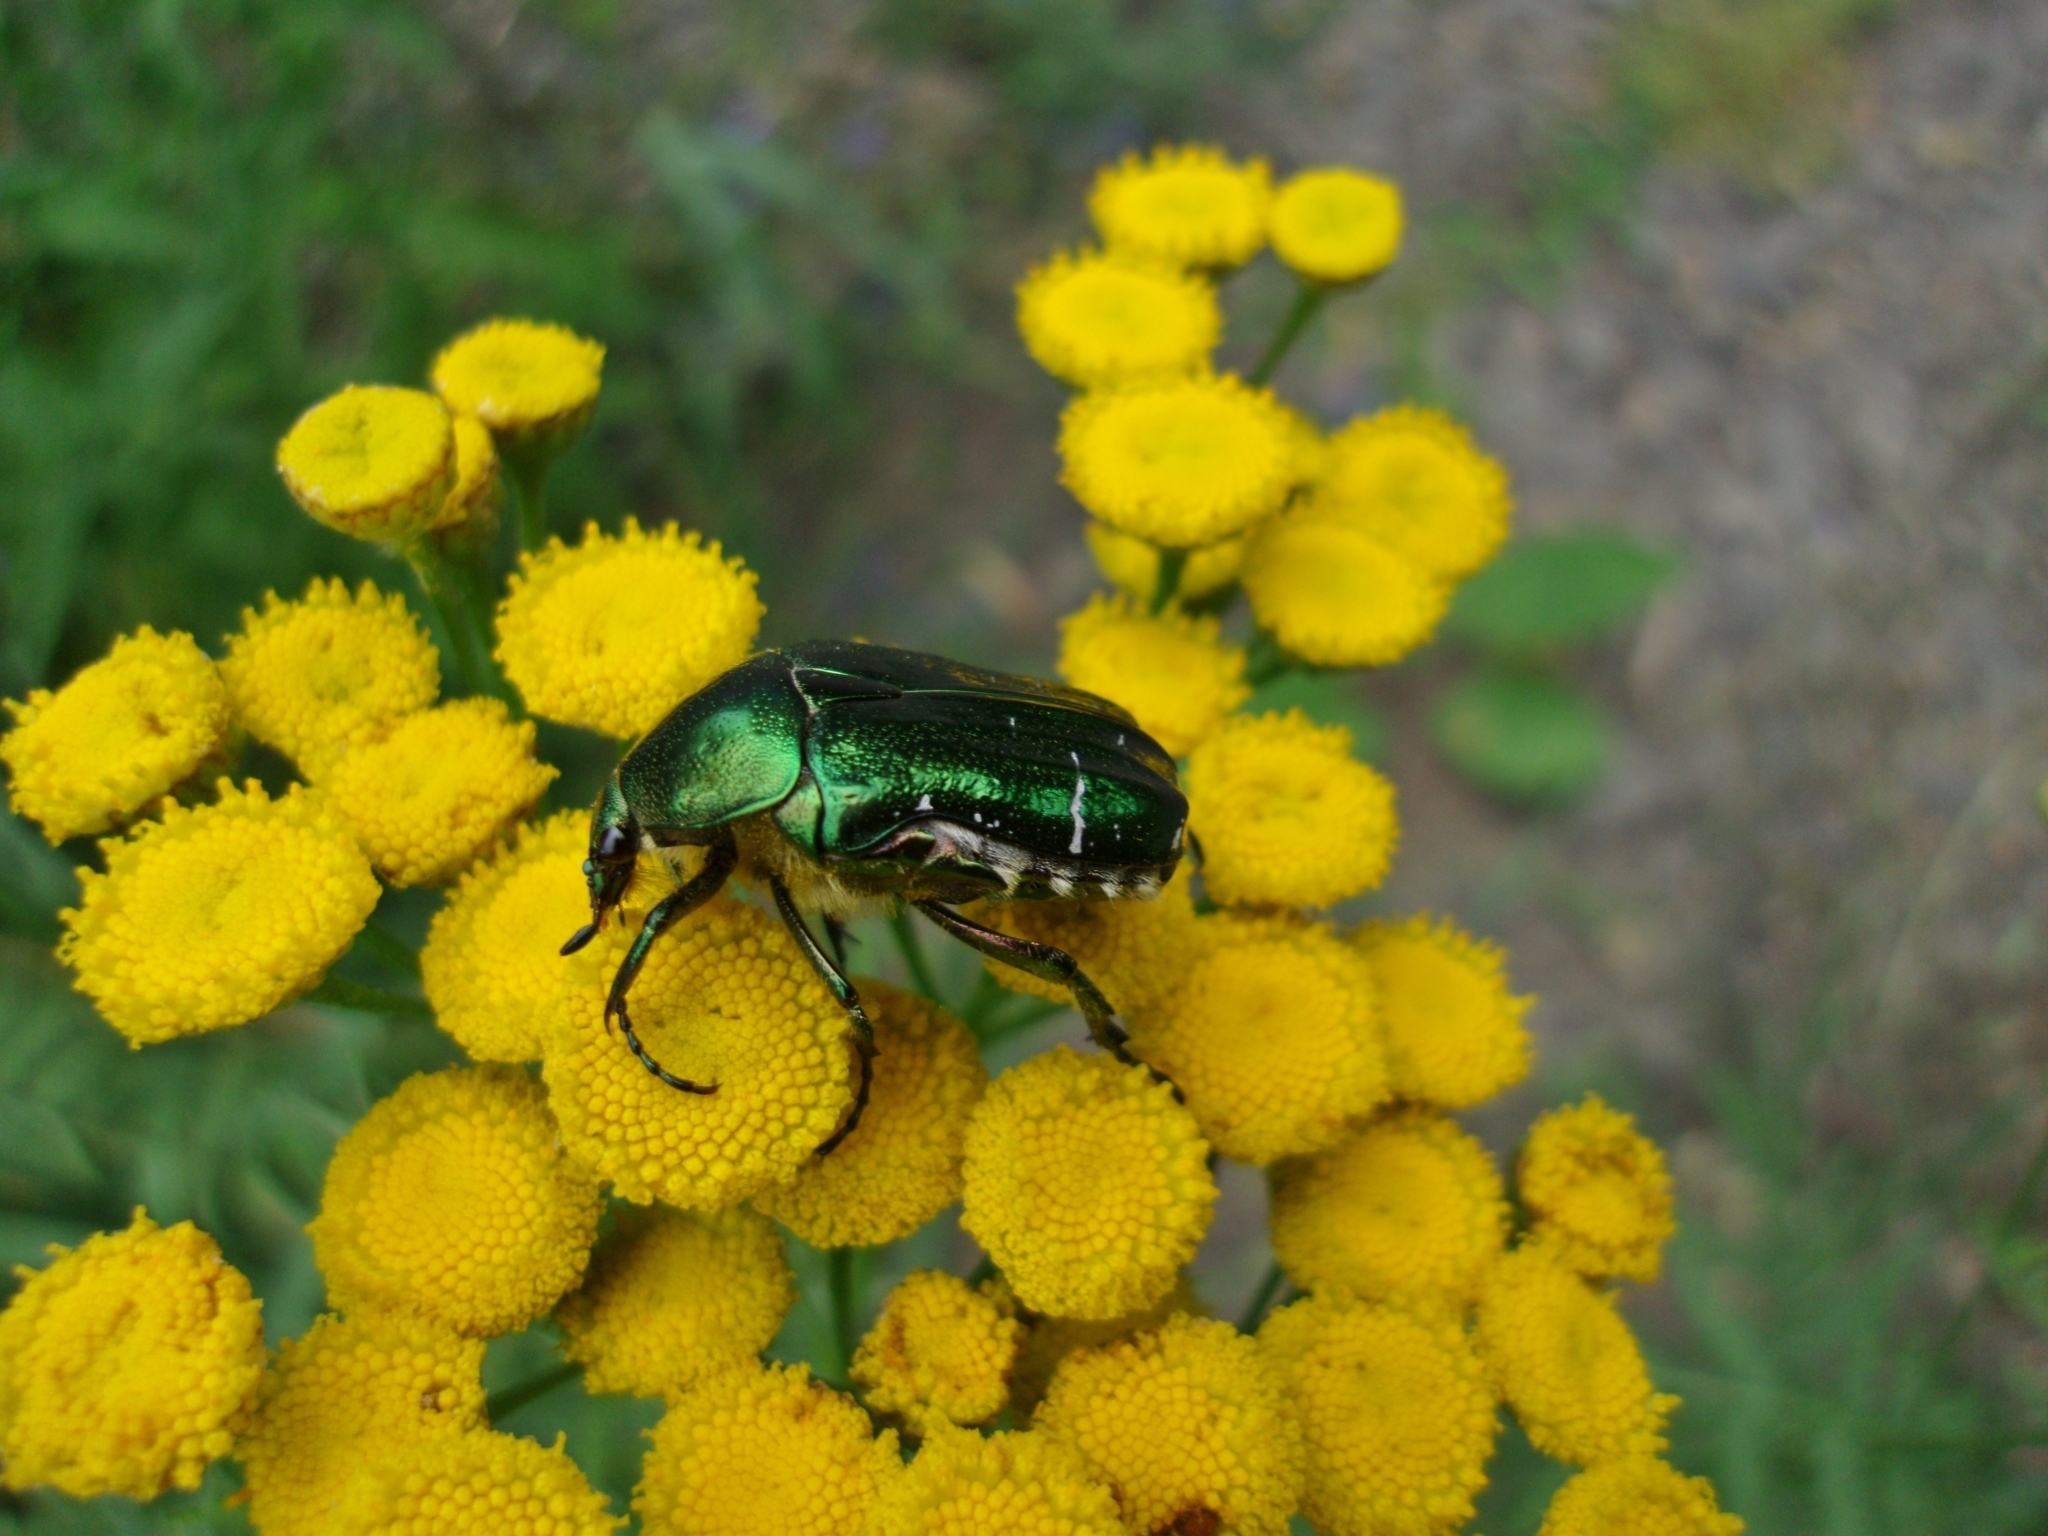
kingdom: Animalia
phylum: Arthropoda
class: Insecta
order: Coleoptera
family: Scarabaeidae
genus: Cetonia
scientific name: Cetonia aurata
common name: Rose chafer
